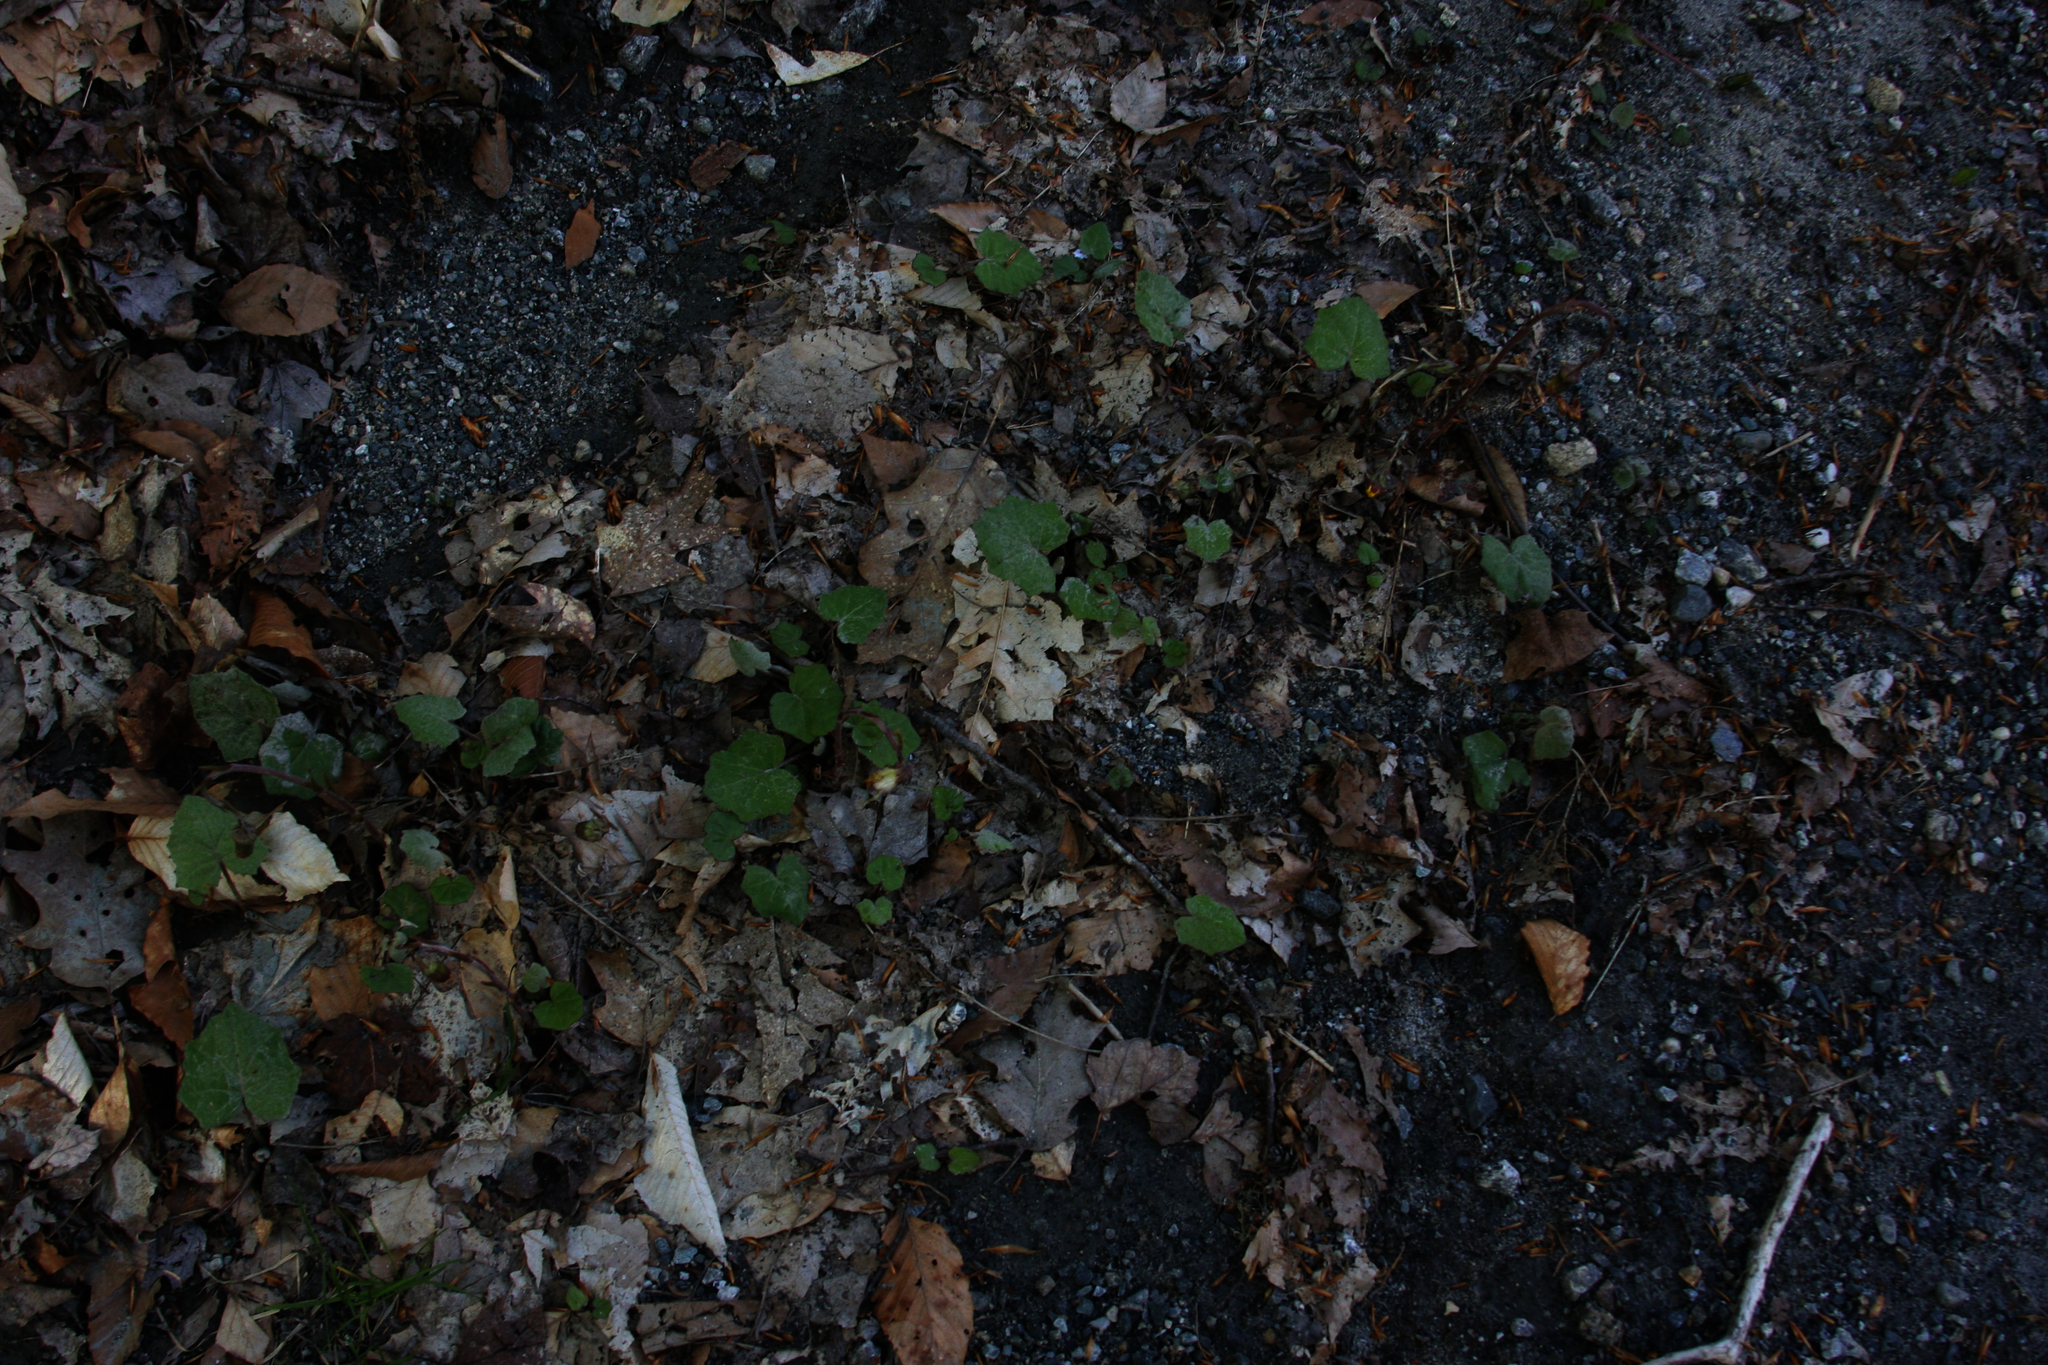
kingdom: Plantae
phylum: Tracheophyta
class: Magnoliopsida
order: Asterales
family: Asteraceae
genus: Tussilago
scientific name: Tussilago farfara
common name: Coltsfoot
